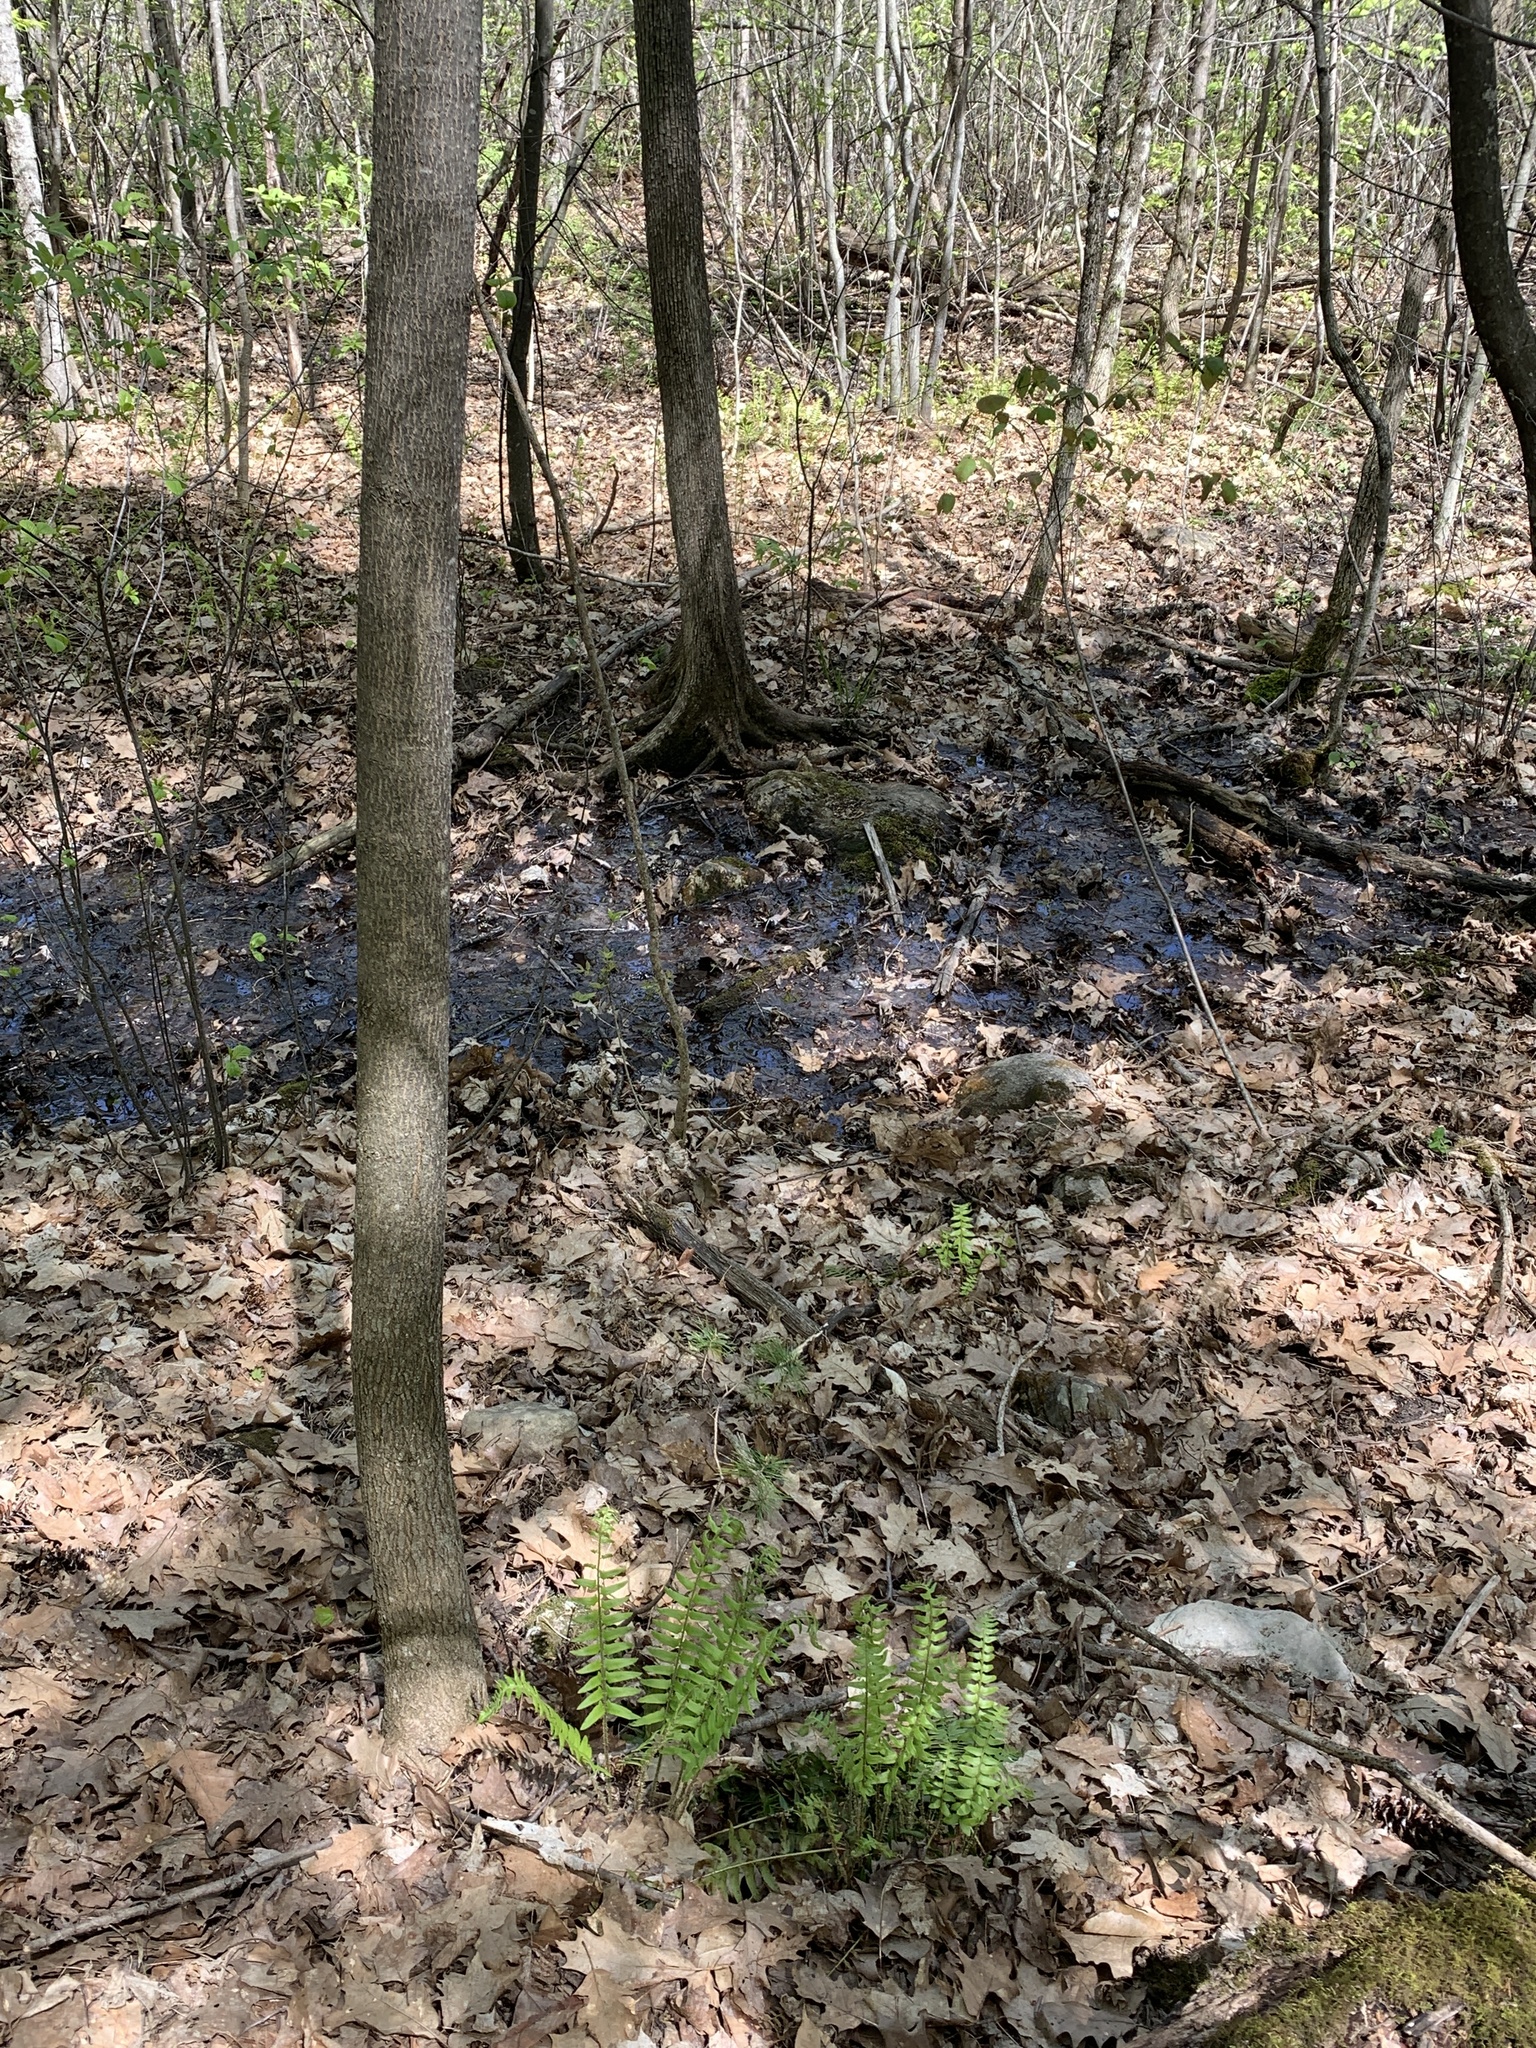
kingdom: Plantae
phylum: Tracheophyta
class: Polypodiopsida
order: Polypodiales
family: Dryopteridaceae
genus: Polystichum
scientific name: Polystichum acrostichoides
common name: Christmas fern
